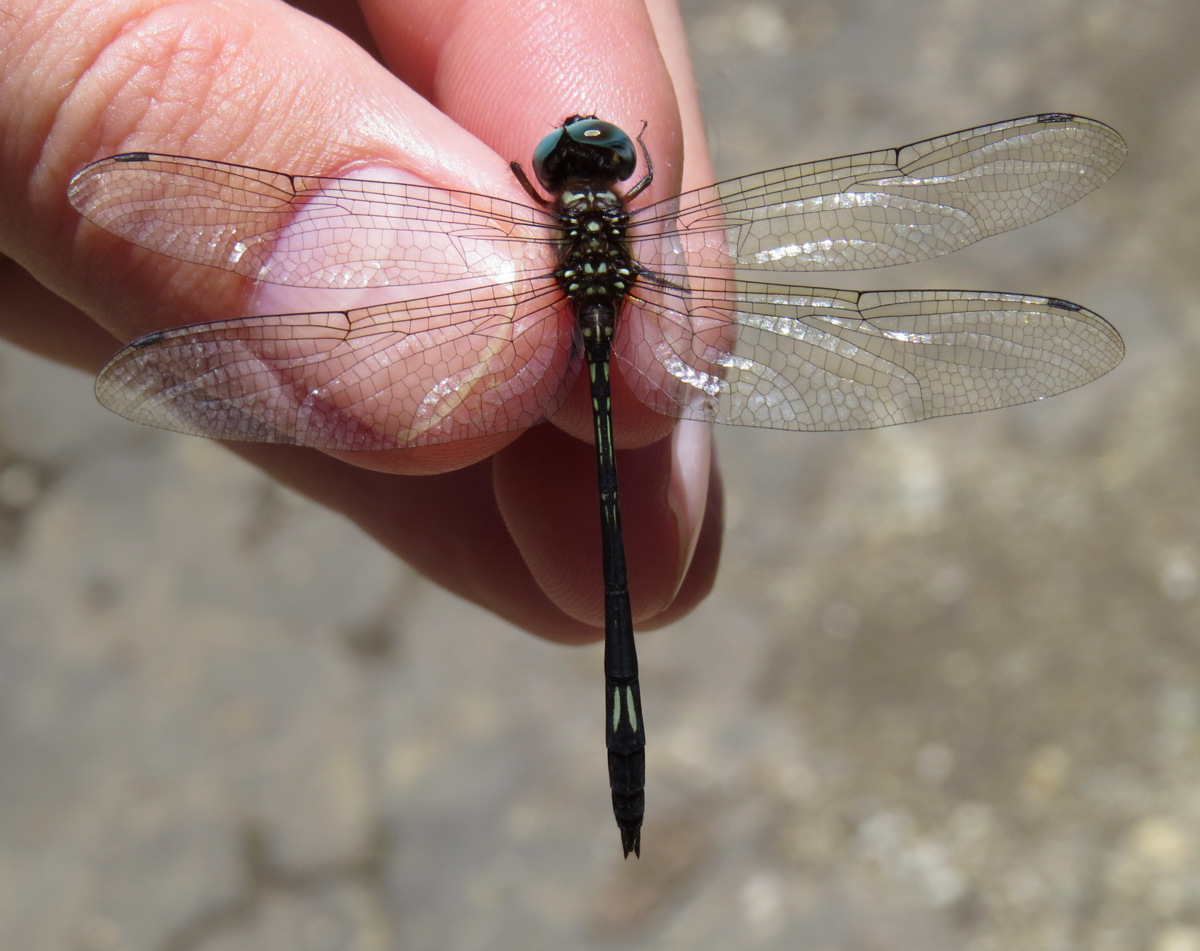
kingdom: Animalia
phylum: Arthropoda
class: Insecta
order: Odonata
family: Libellulidae
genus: Brechmorhoga
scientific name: Brechmorhoga praecox
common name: Slender clubskimmer
